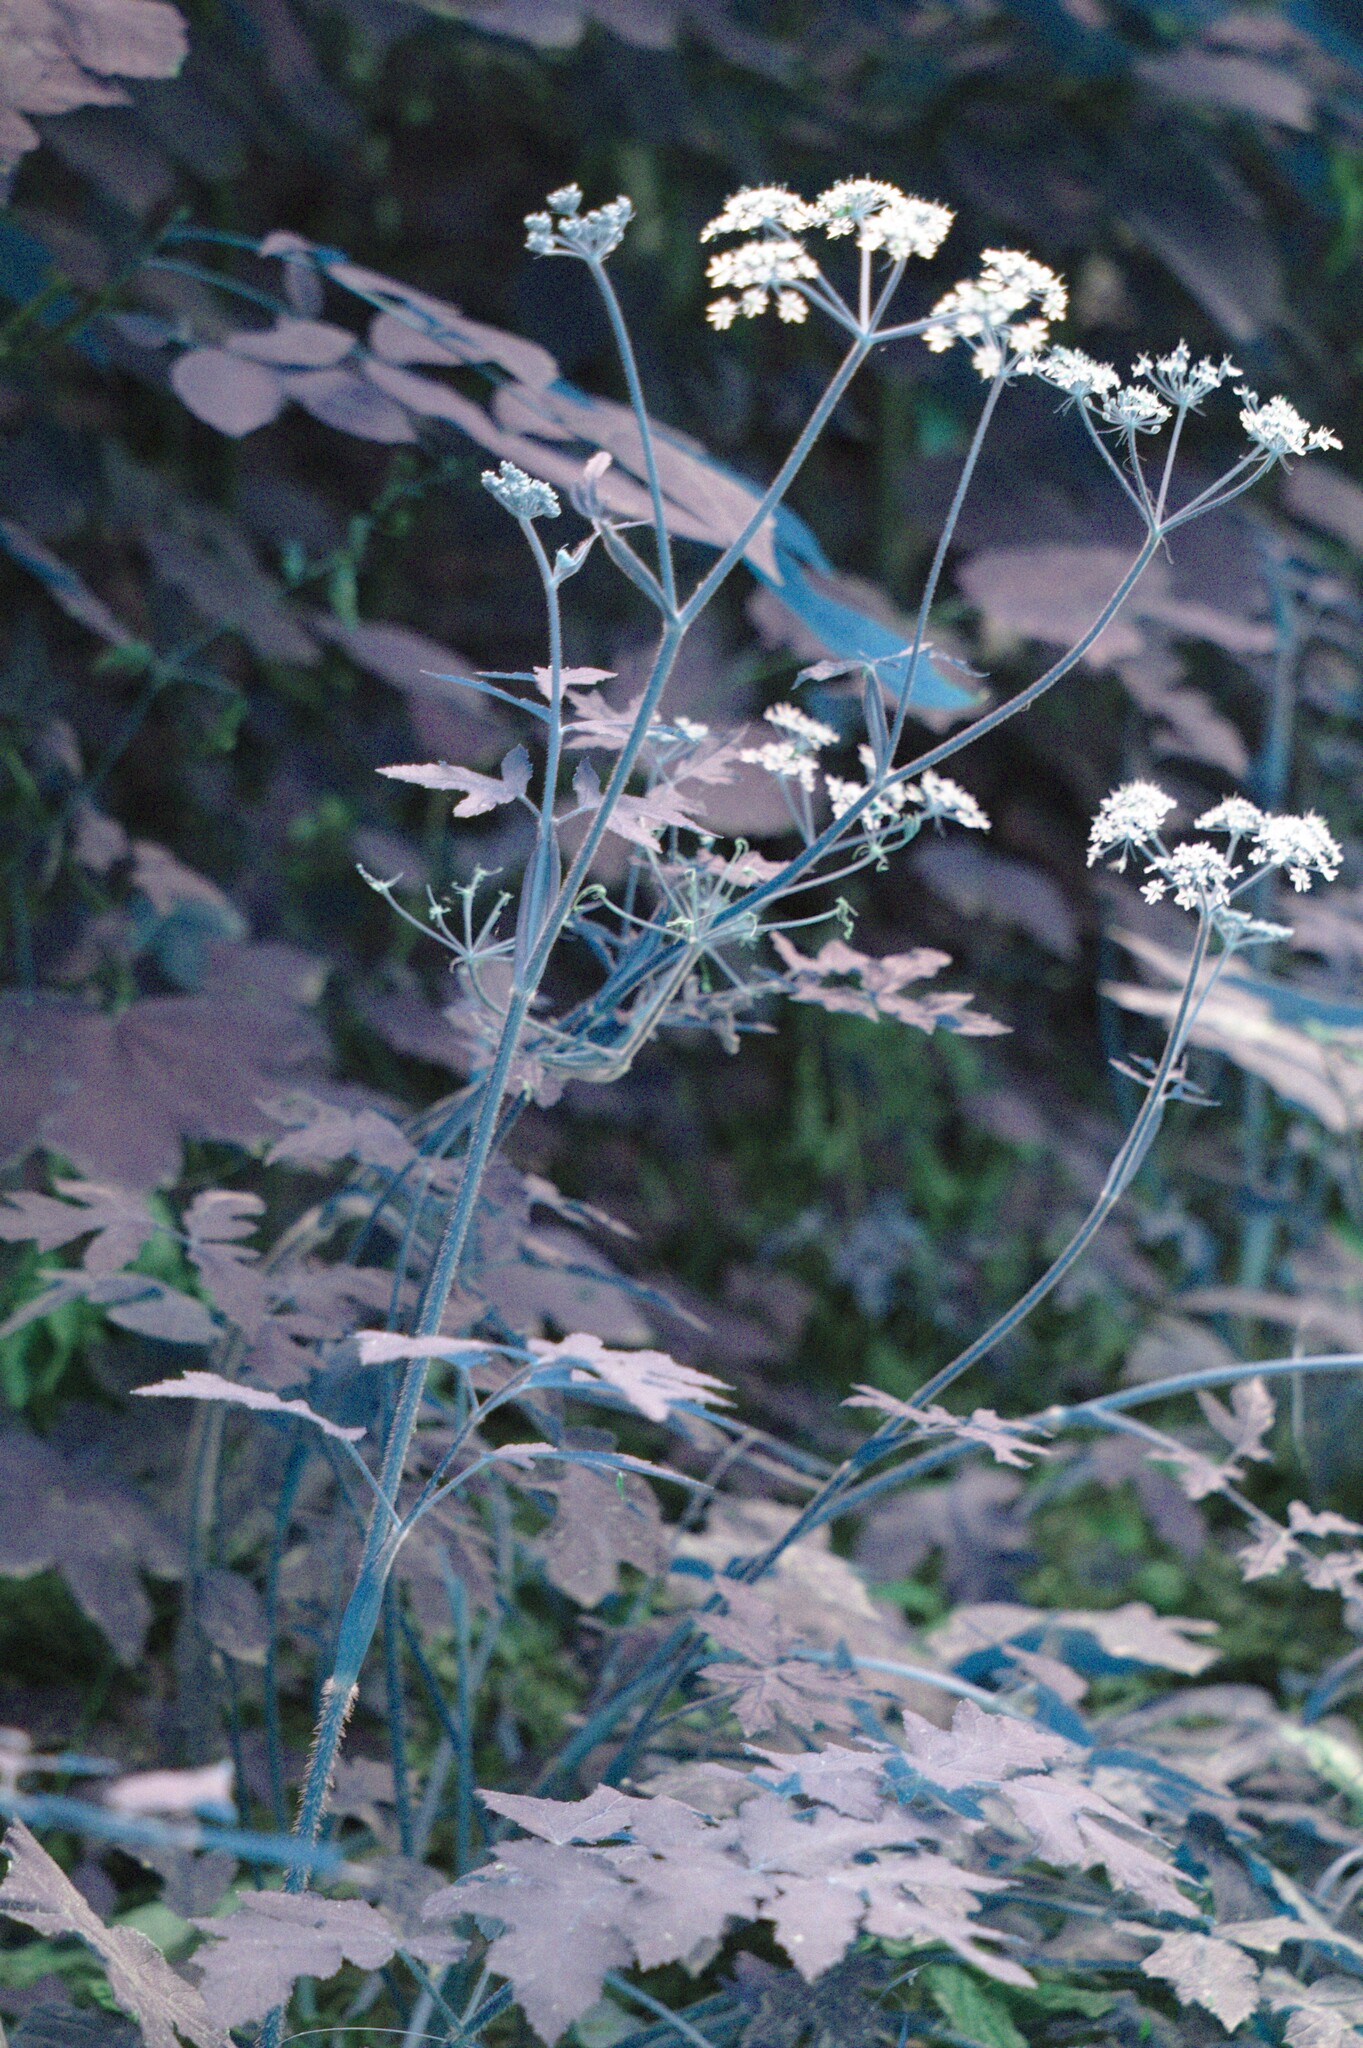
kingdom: Plantae
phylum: Tracheophyta
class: Magnoliopsida
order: Apiales
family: Apiaceae
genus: Heracleum
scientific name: Heracleum sphondylium
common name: Hogweed
